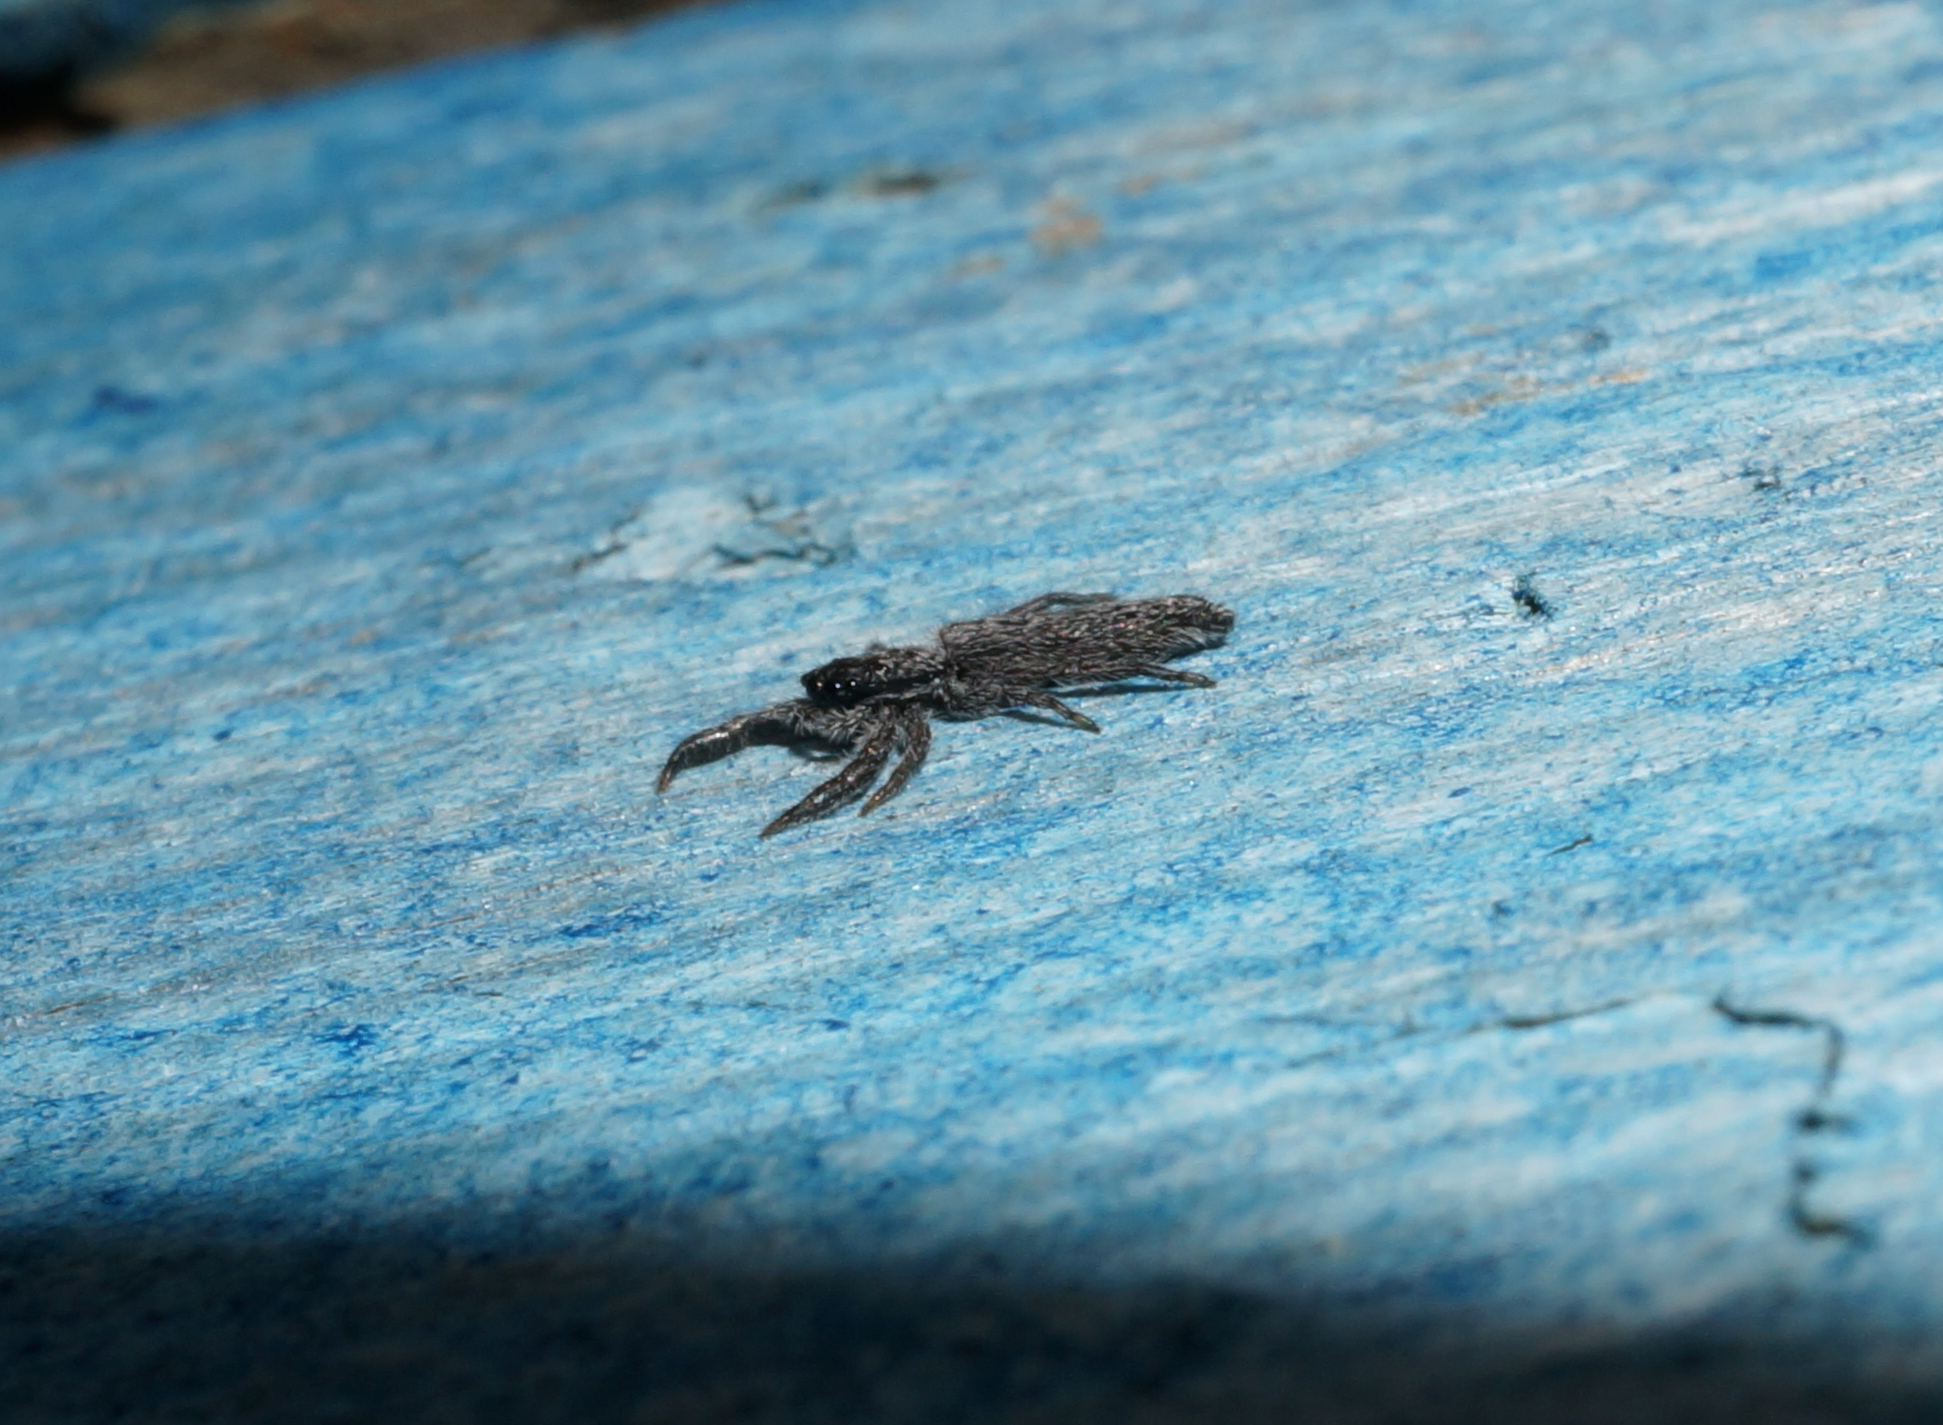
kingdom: Animalia
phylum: Arthropoda
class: Arachnida
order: Araneae
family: Salticidae
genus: Holoplatys
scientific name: Holoplatys apressus
